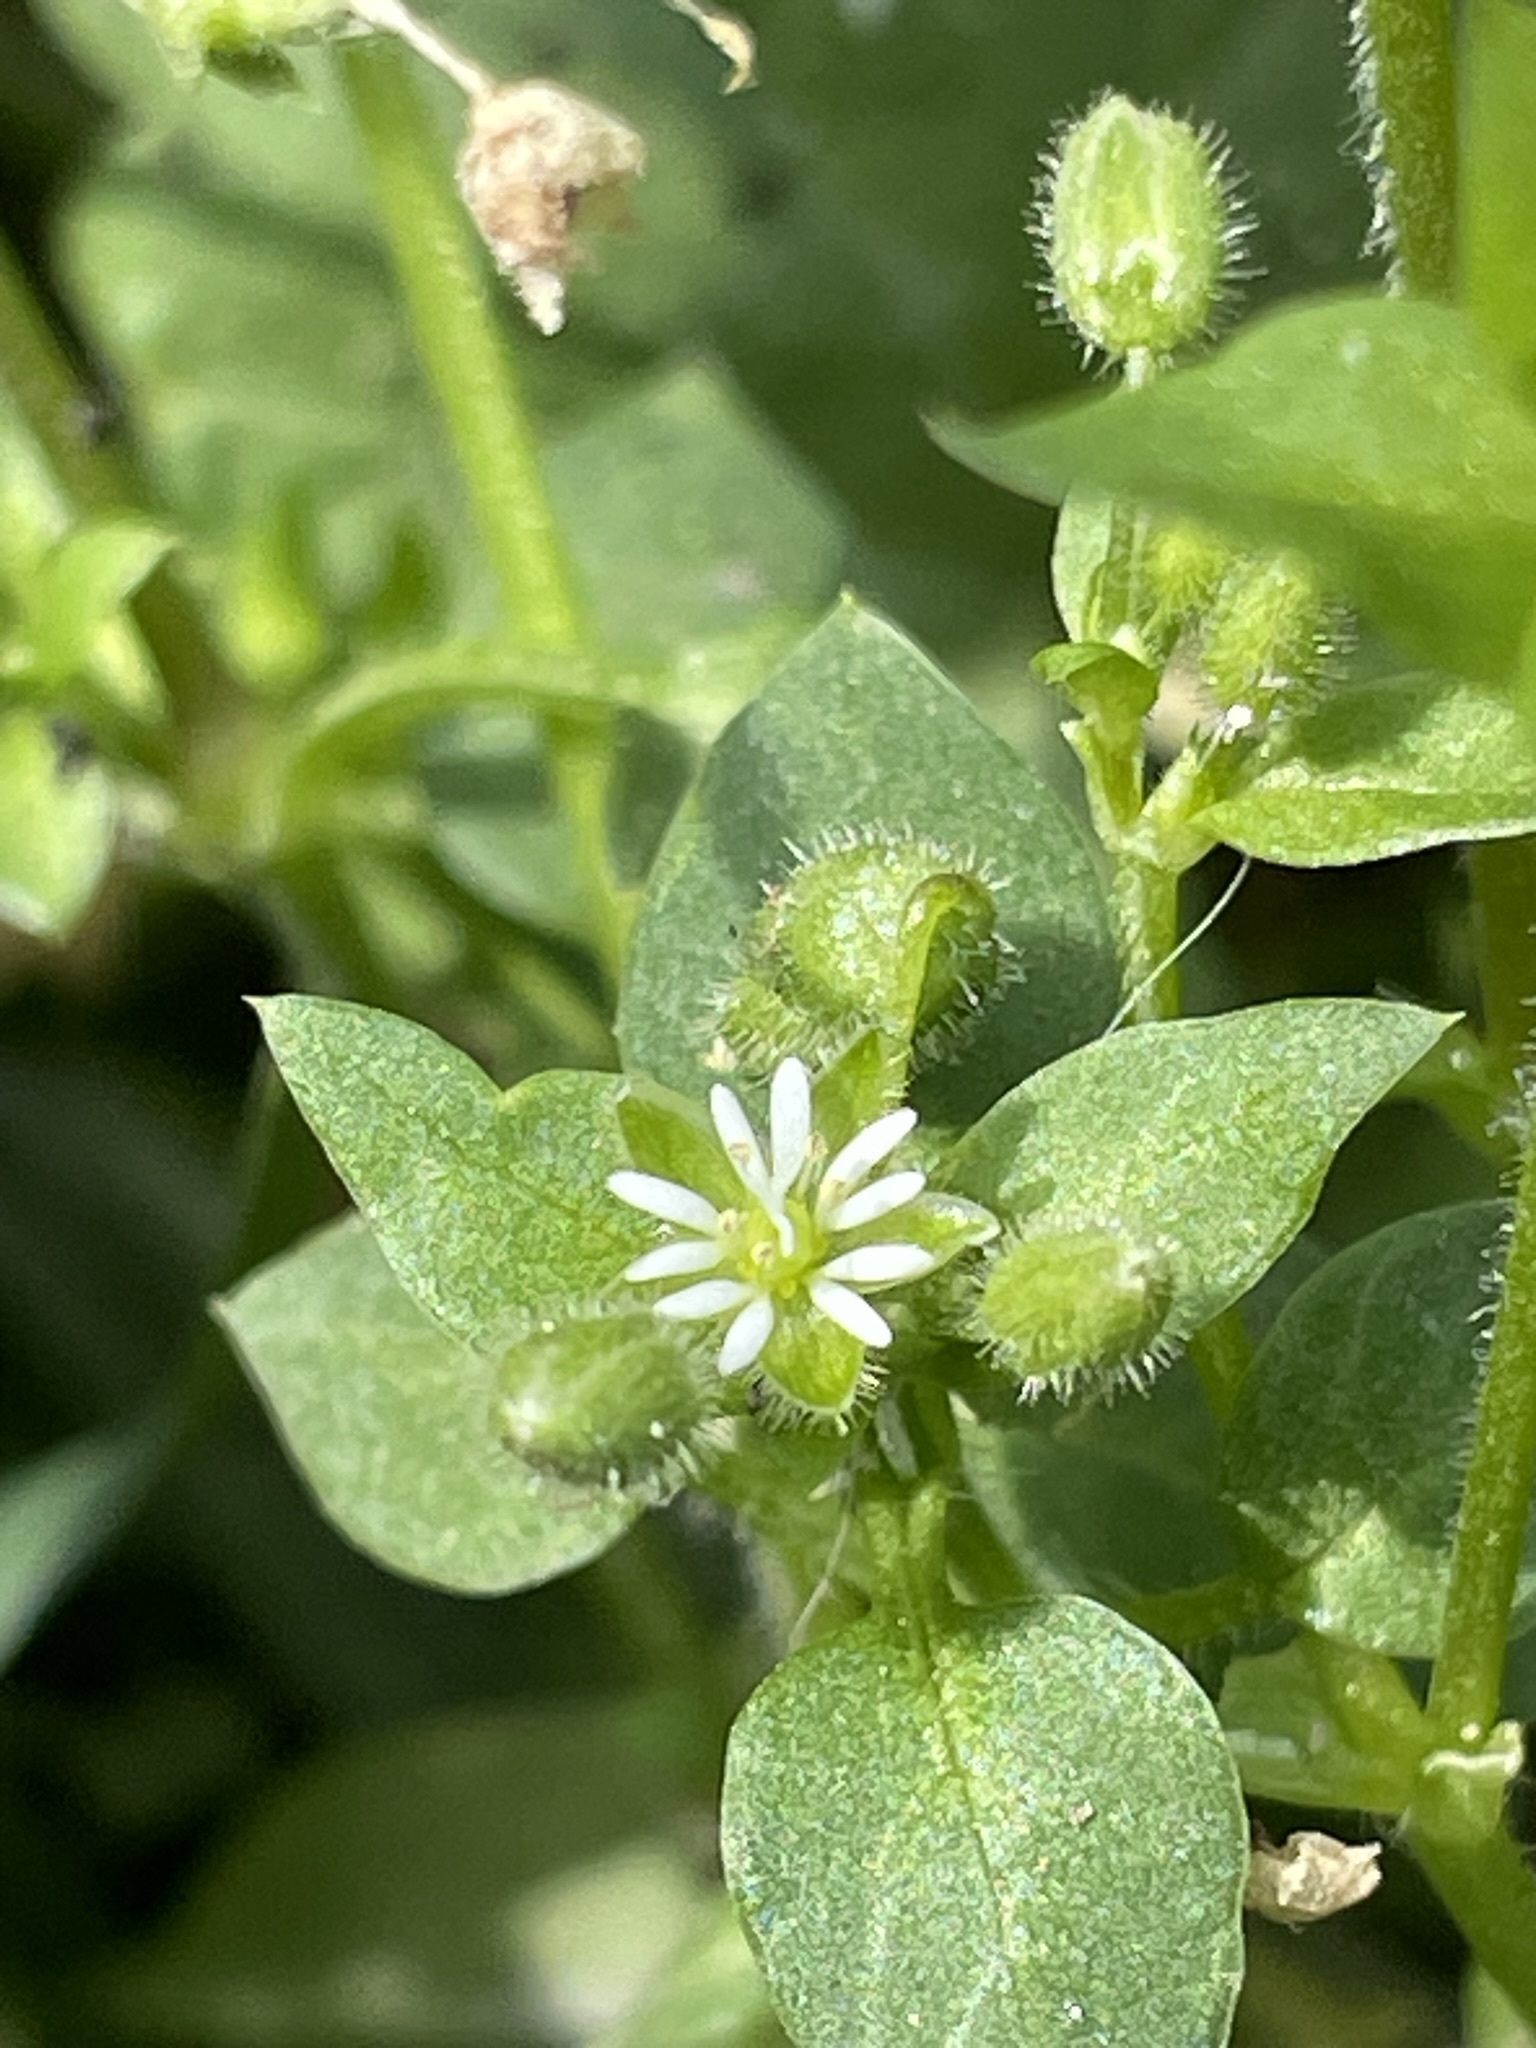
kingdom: Plantae
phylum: Tracheophyta
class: Magnoliopsida
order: Caryophyllales
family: Caryophyllaceae
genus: Stellaria
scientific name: Stellaria media
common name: Common chickweed
